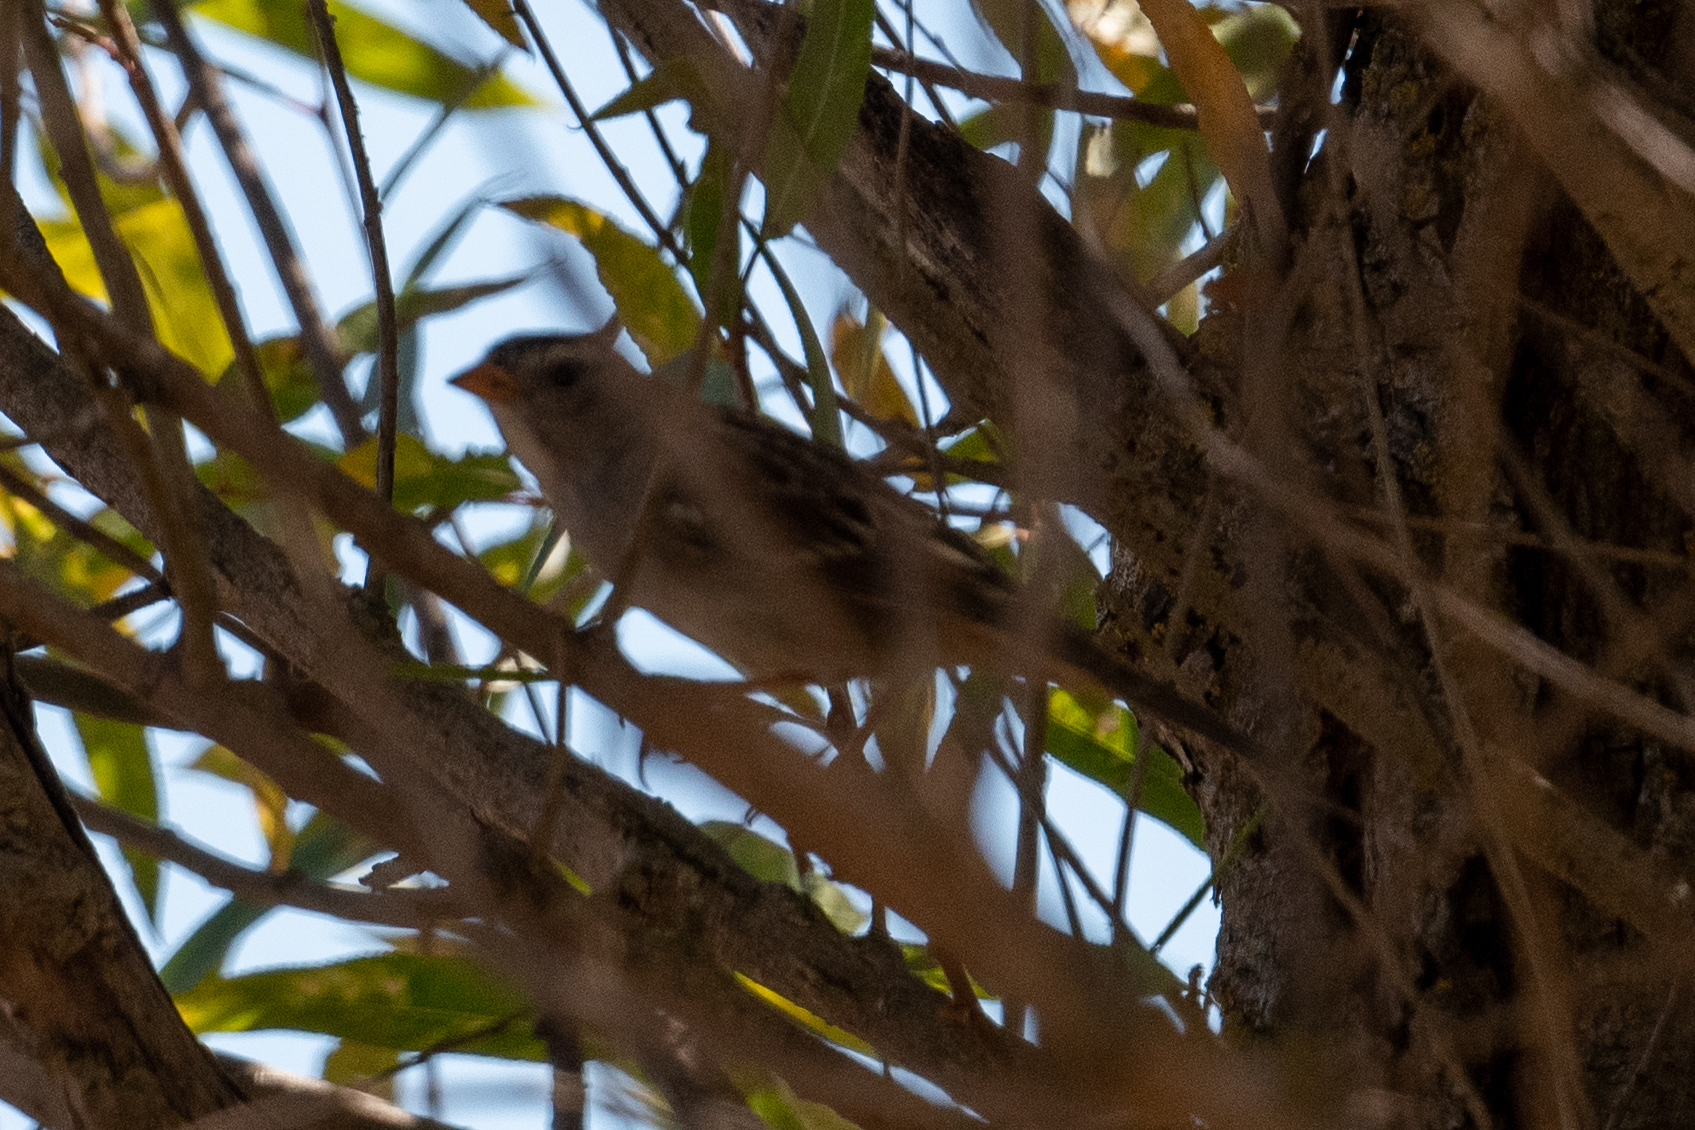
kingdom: Animalia
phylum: Chordata
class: Aves
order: Passeriformes
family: Passerellidae
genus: Zonotrichia
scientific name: Zonotrichia leucophrys
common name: White-crowned sparrow
